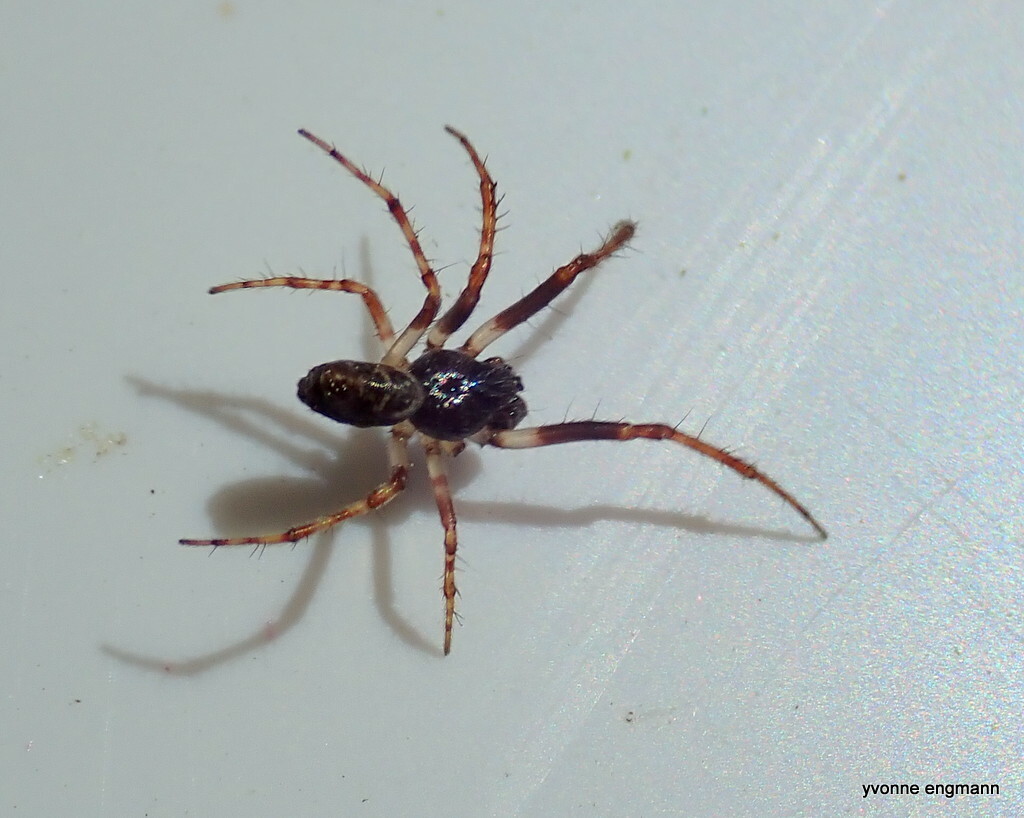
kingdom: Animalia
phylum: Arthropoda
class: Arachnida
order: Araneae
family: Araneidae
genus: Cyclosa
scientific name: Cyclosa conica
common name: Conical trashline orbweaver
